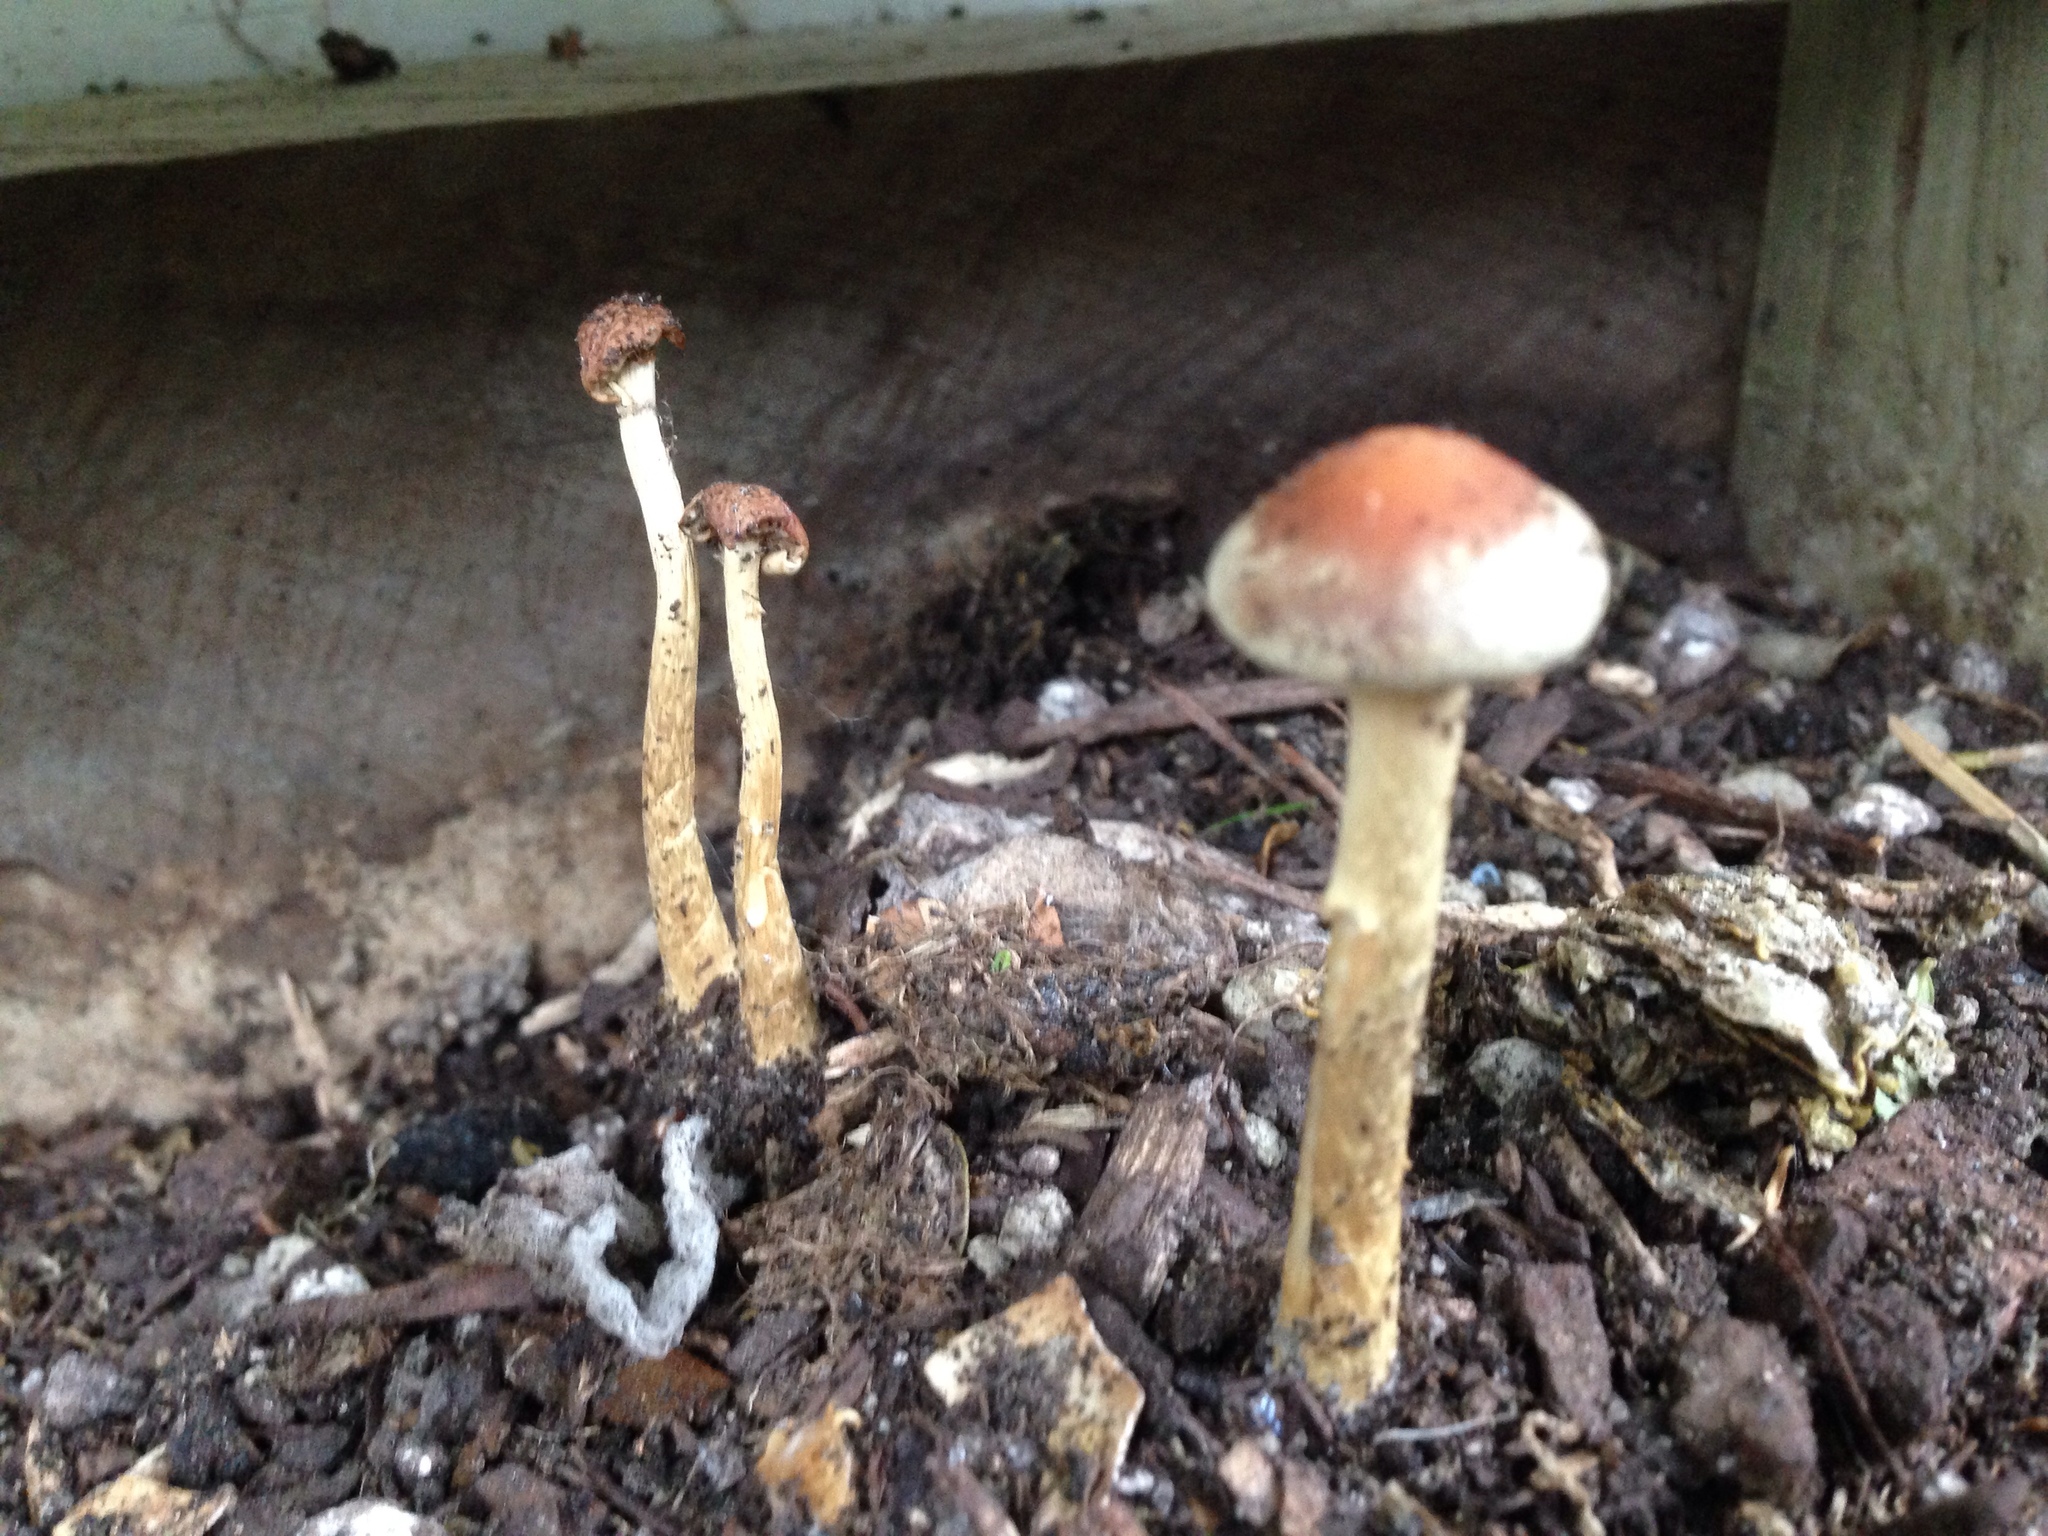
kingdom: Fungi
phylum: Basidiomycota
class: Agaricomycetes
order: Agaricales
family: Strophariaceae
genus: Leratiomyces
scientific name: Leratiomyces ceres
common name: Redlead roundhead
